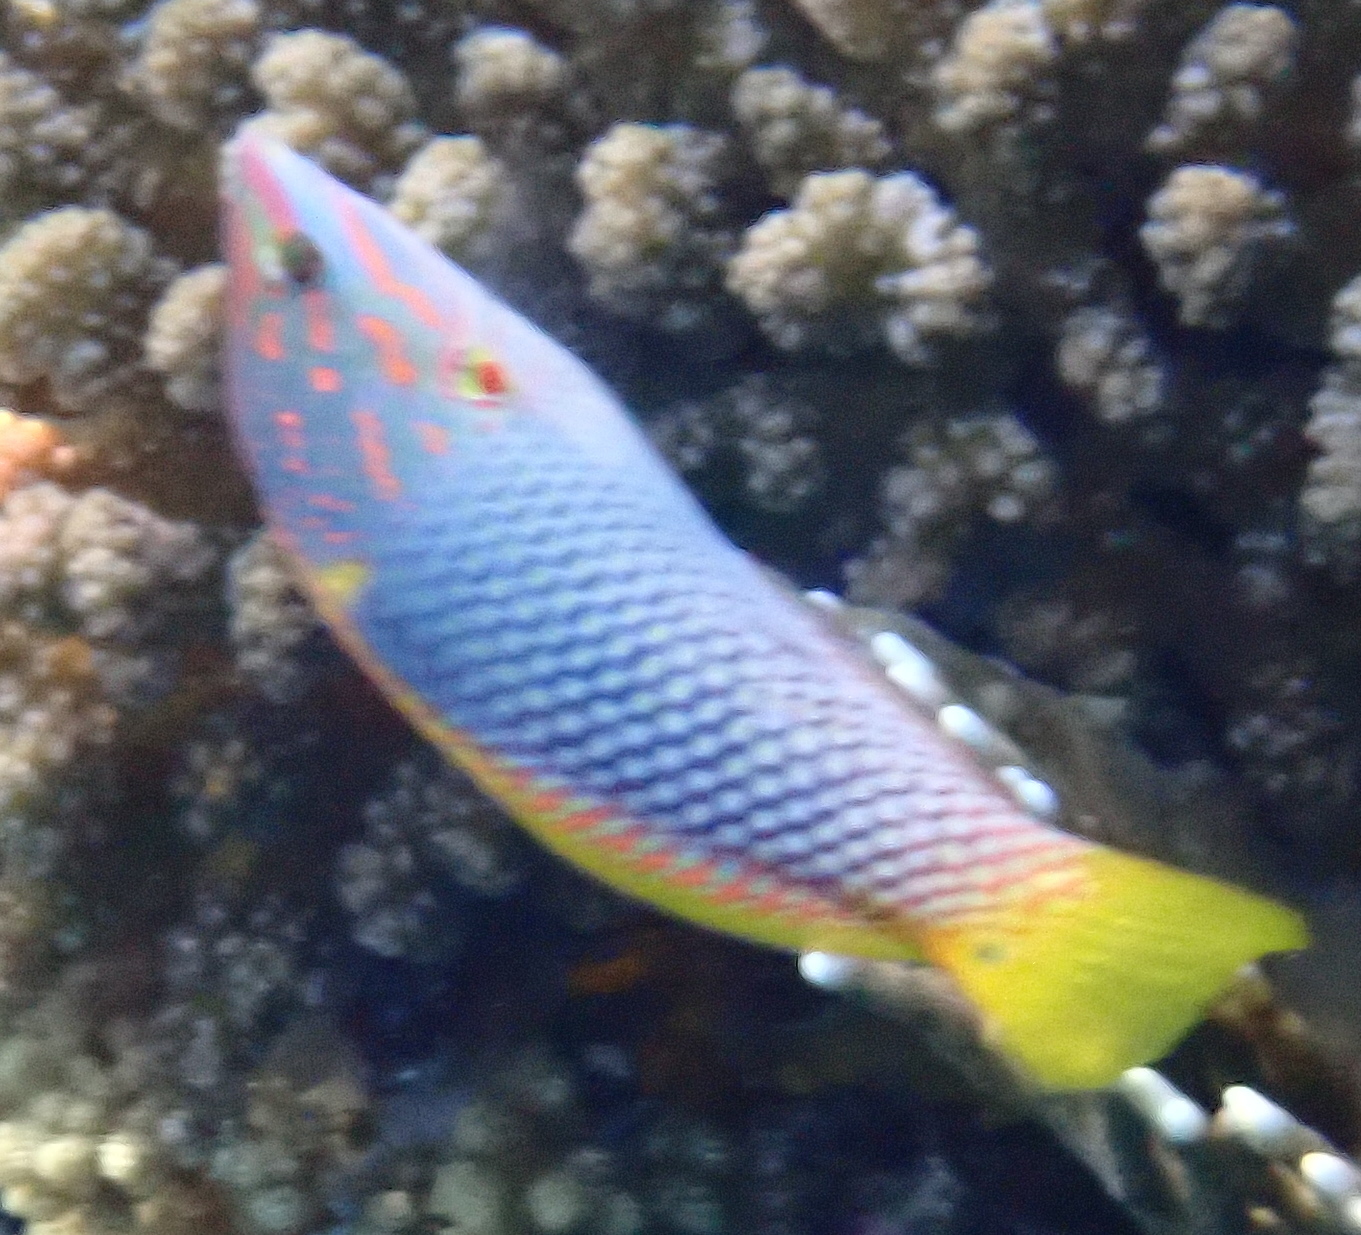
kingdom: Animalia
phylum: Chordata
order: Perciformes
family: Labridae
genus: Halichoeres
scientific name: Halichoeres hortulanus
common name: Checkerboard wrasse
